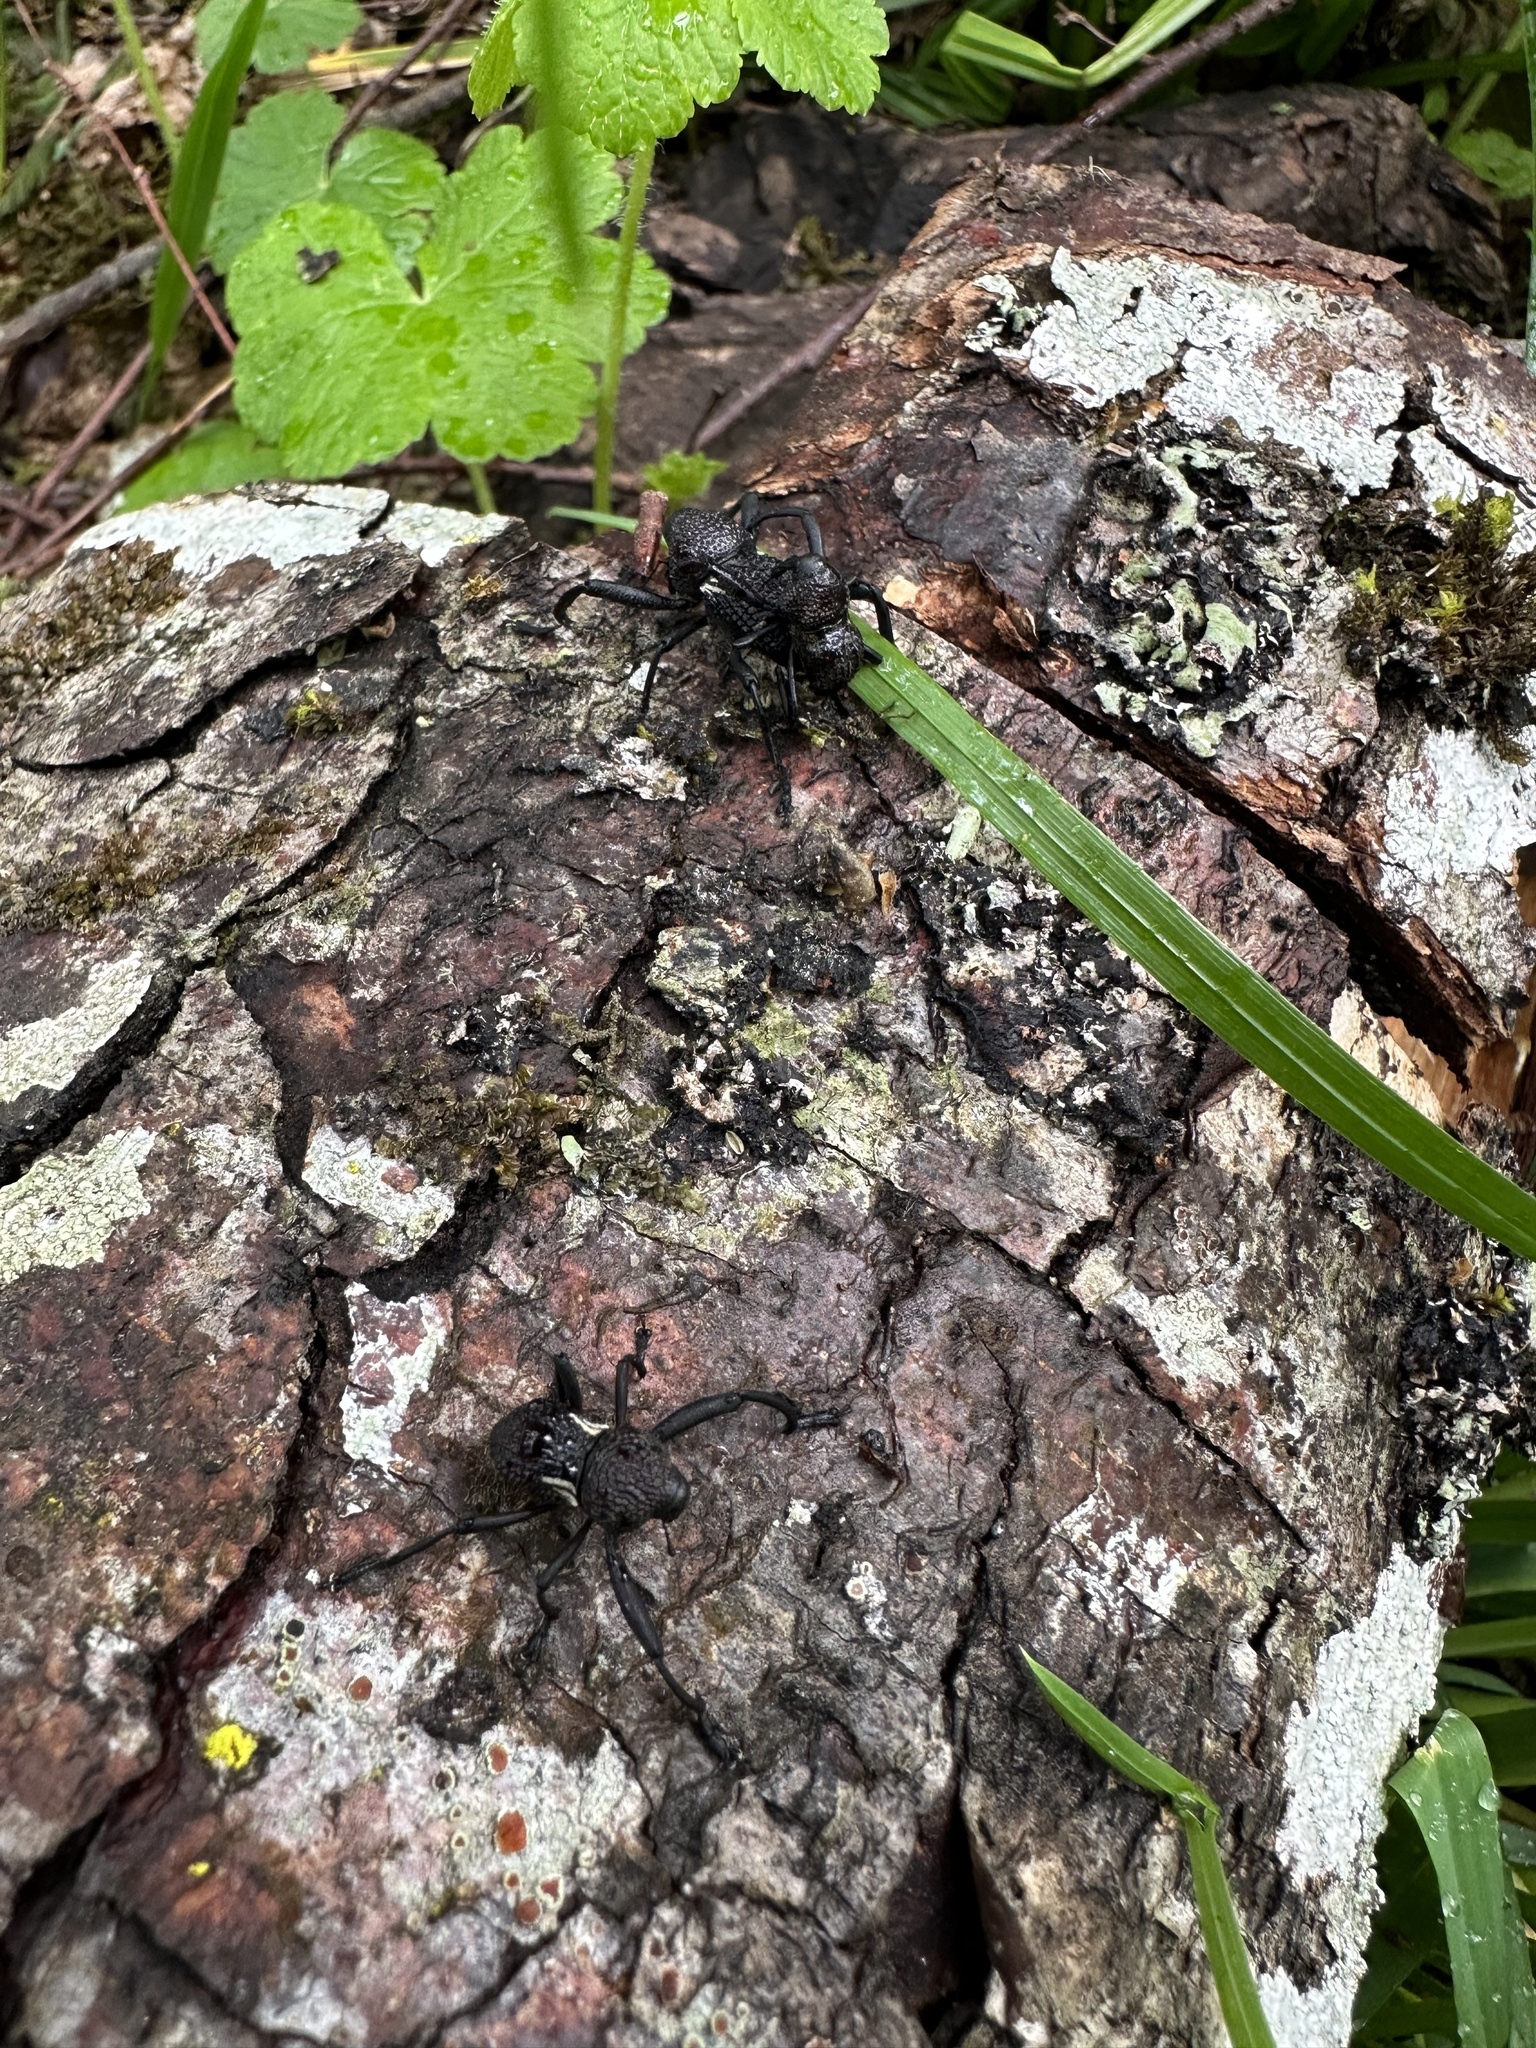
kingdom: Animalia
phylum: Arthropoda
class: Insecta
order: Coleoptera
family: Curculionidae
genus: Rhyephenes
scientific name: Rhyephenes humeralis
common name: Araè±ita chilena del pino
